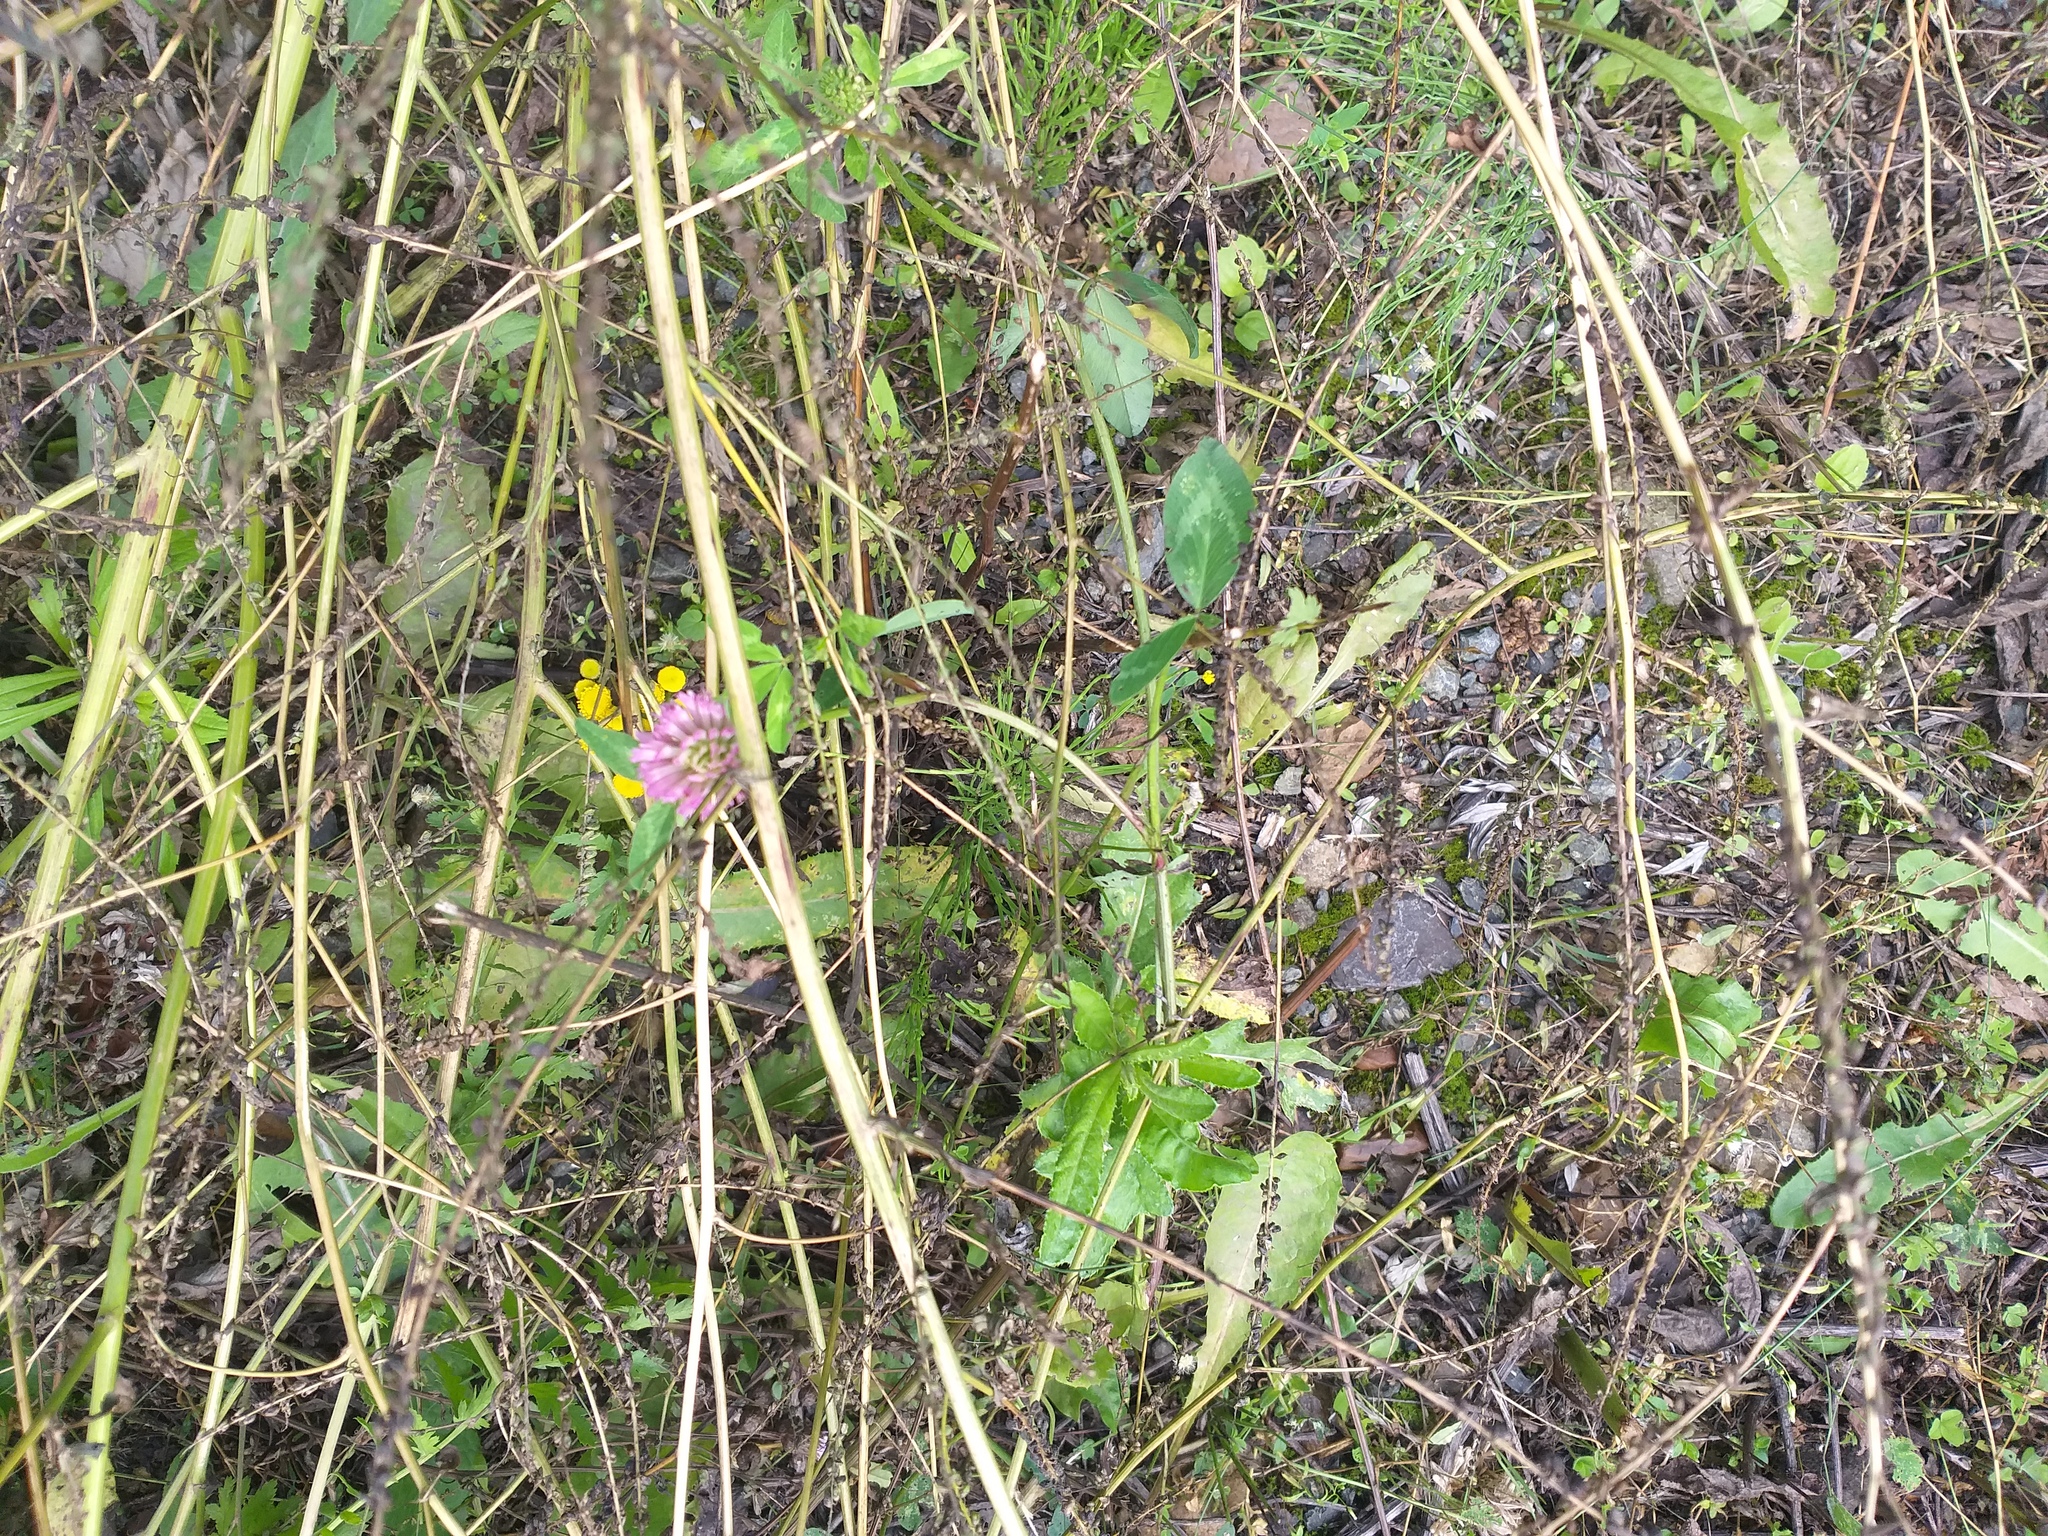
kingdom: Plantae
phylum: Tracheophyta
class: Magnoliopsida
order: Fabales
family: Fabaceae
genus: Trifolium
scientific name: Trifolium pratense
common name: Red clover
